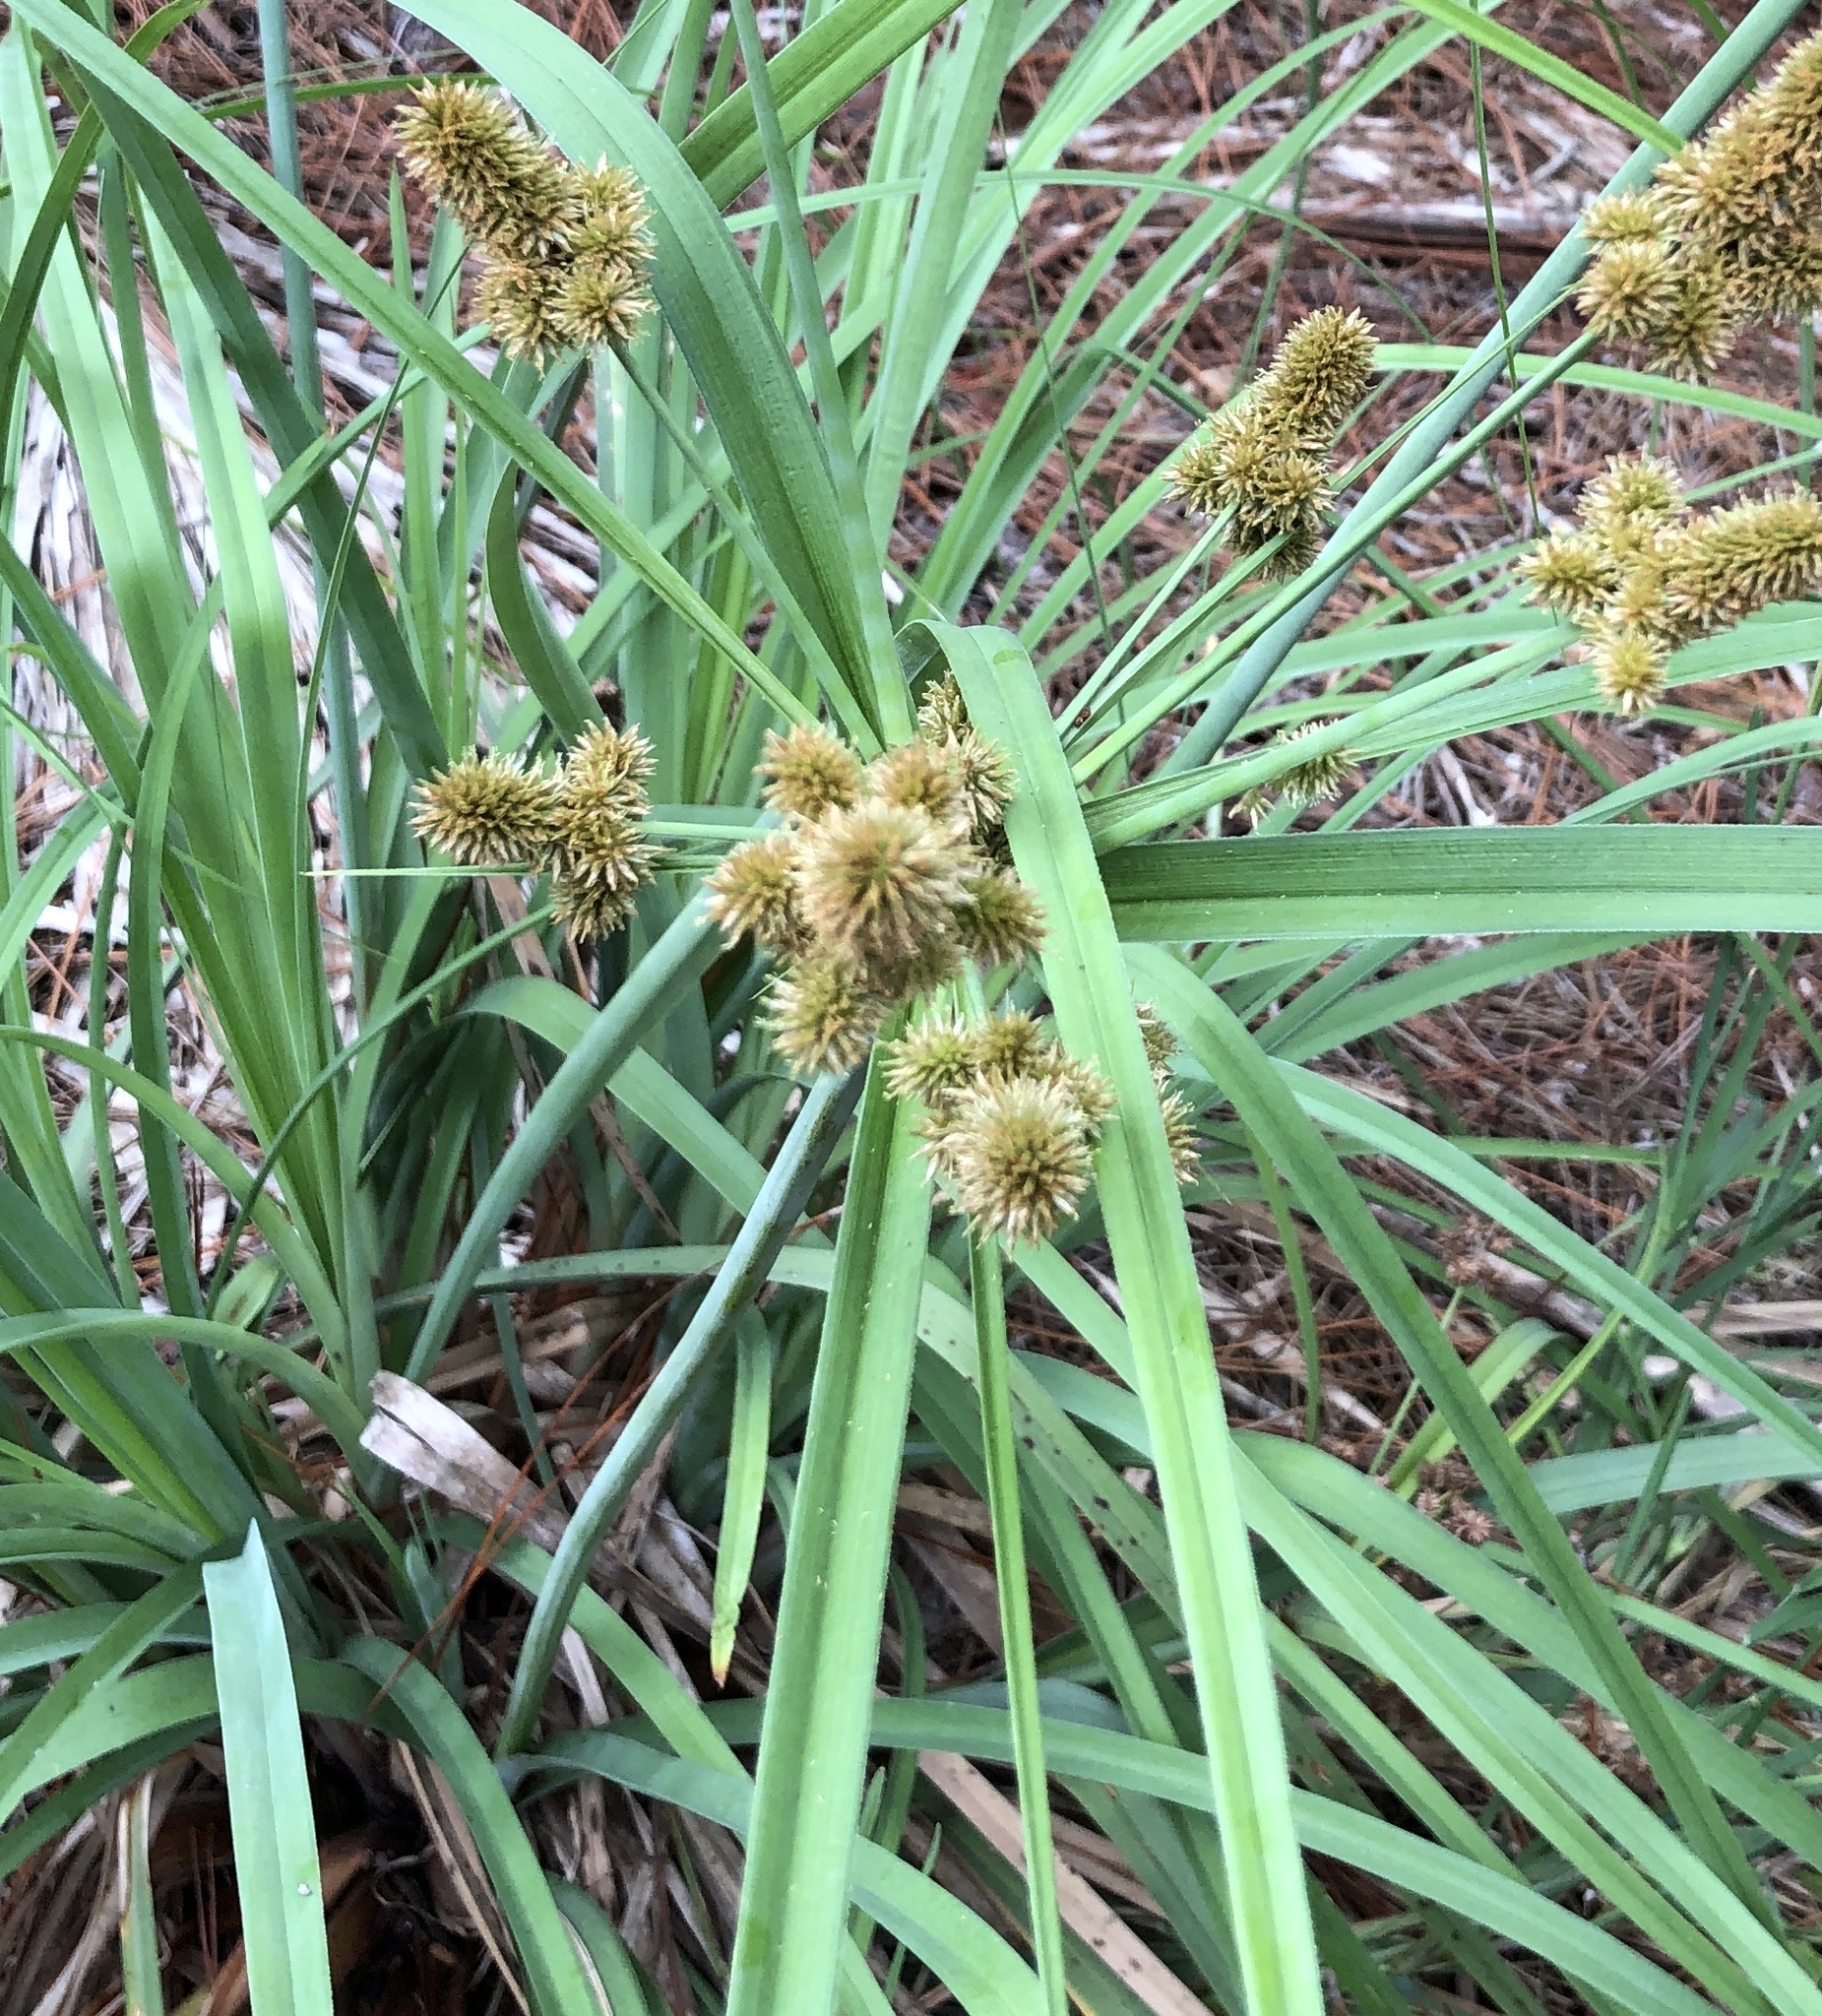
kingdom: Plantae
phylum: Tracheophyta
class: Liliopsida
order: Poales
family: Cyperaceae
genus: Cyperus
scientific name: Cyperus ligularis
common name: Swamp flat sedge
